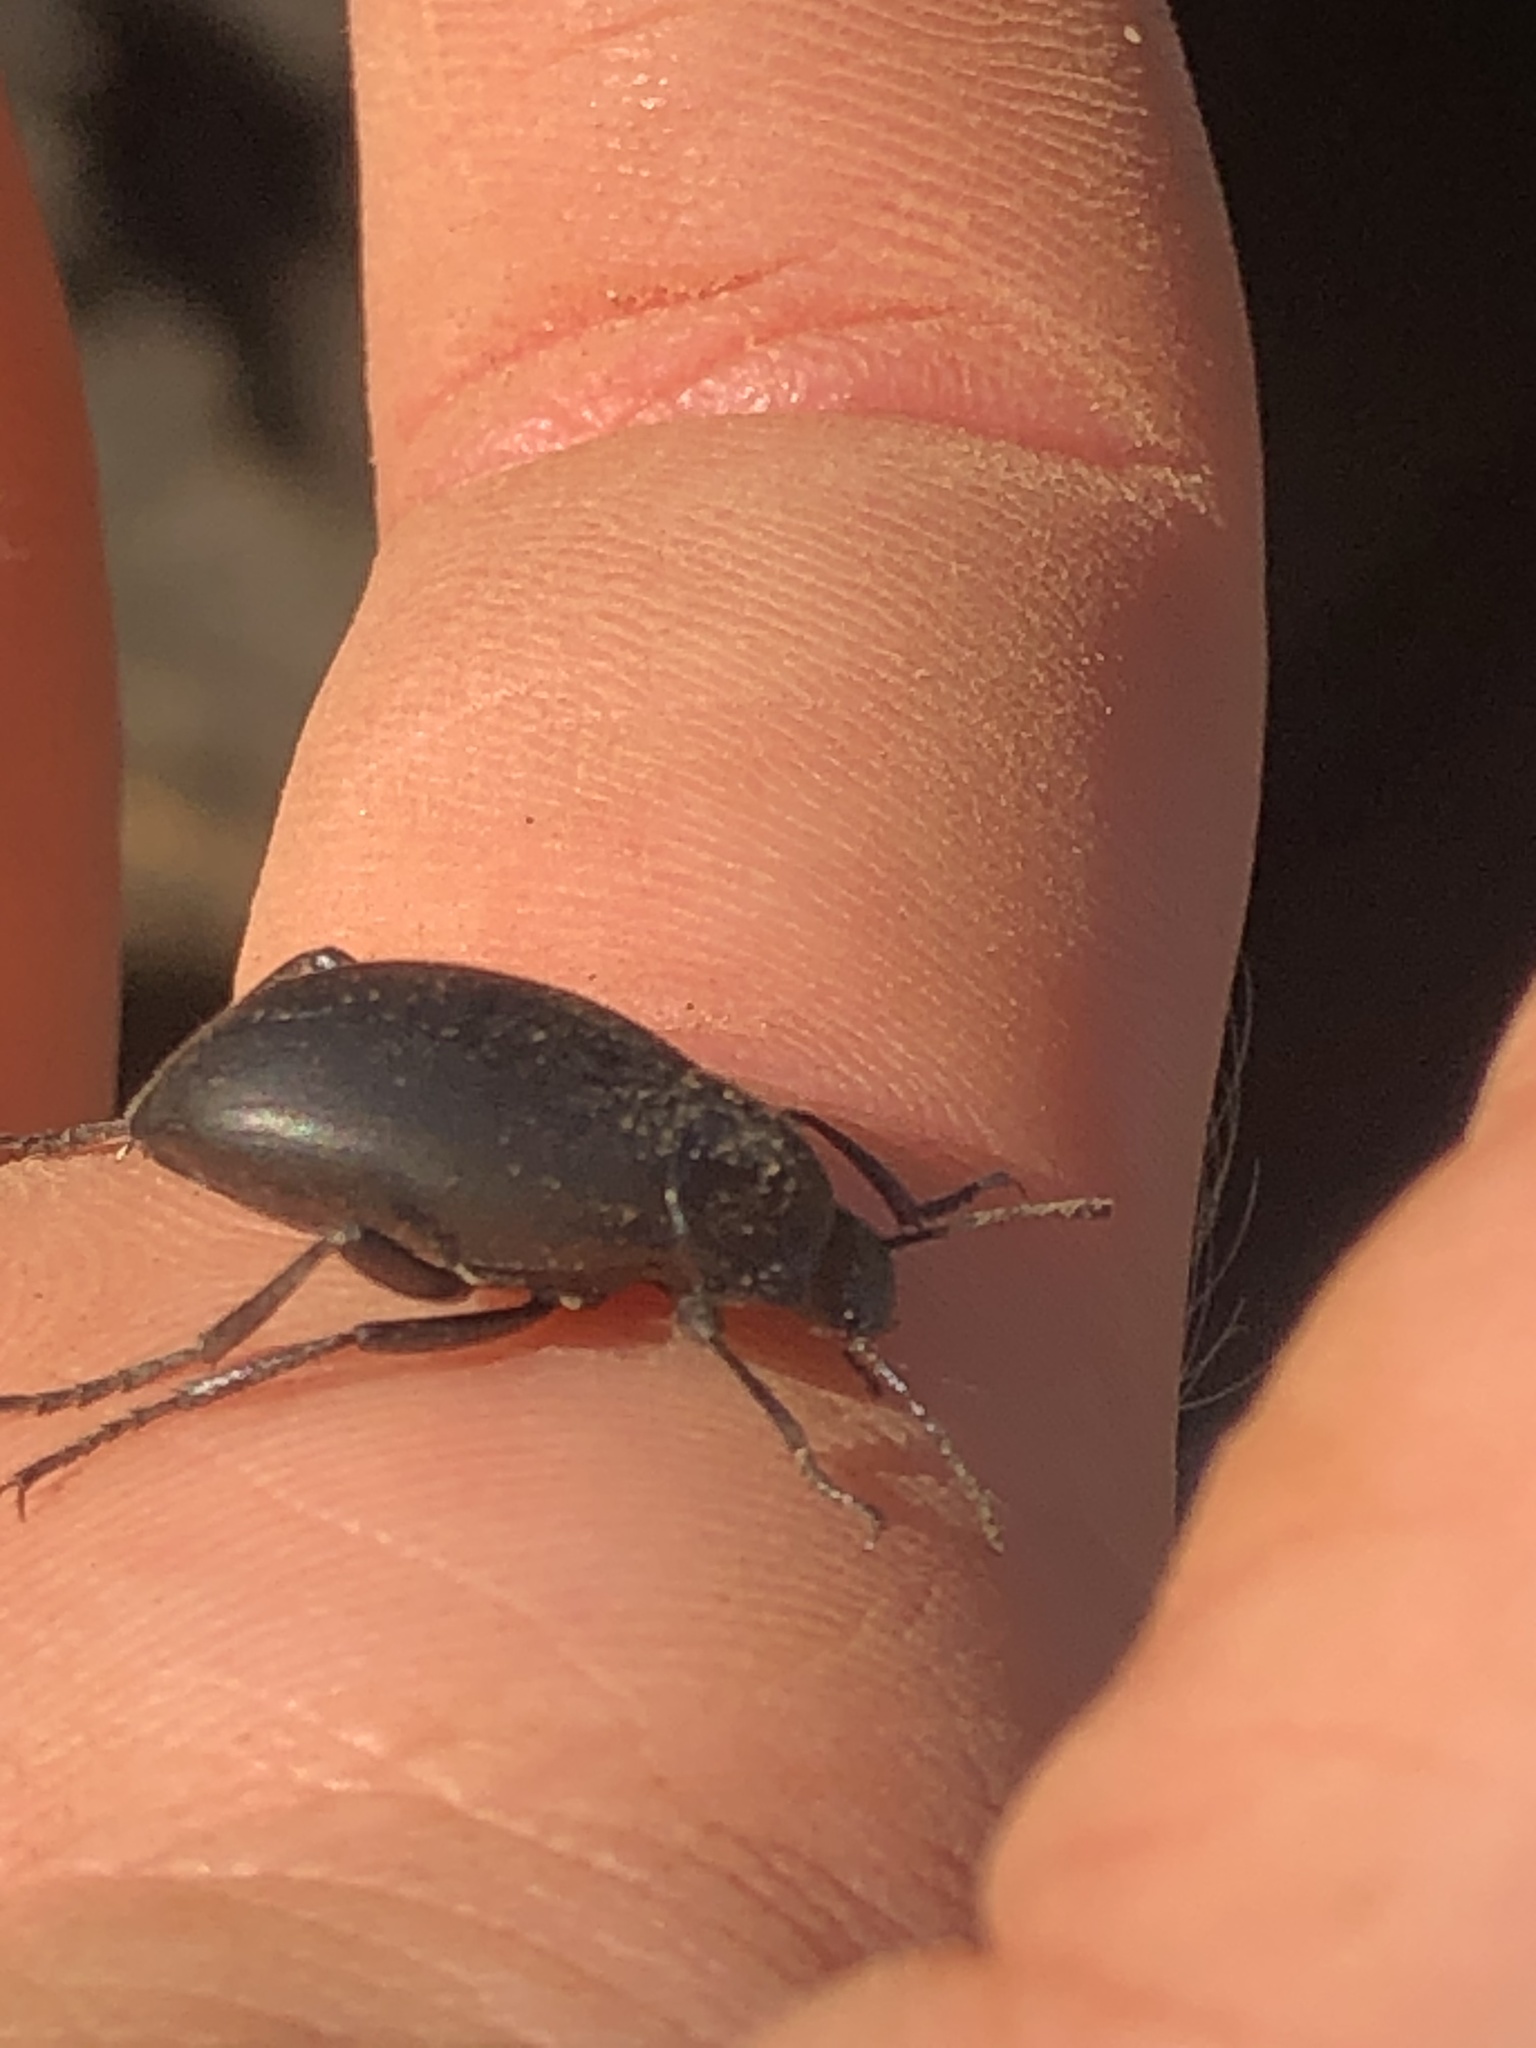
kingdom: Animalia
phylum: Arthropoda
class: Insecta
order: Coleoptera
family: Tenebrionidae
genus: Eleodes
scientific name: Eleodes fusiformis
